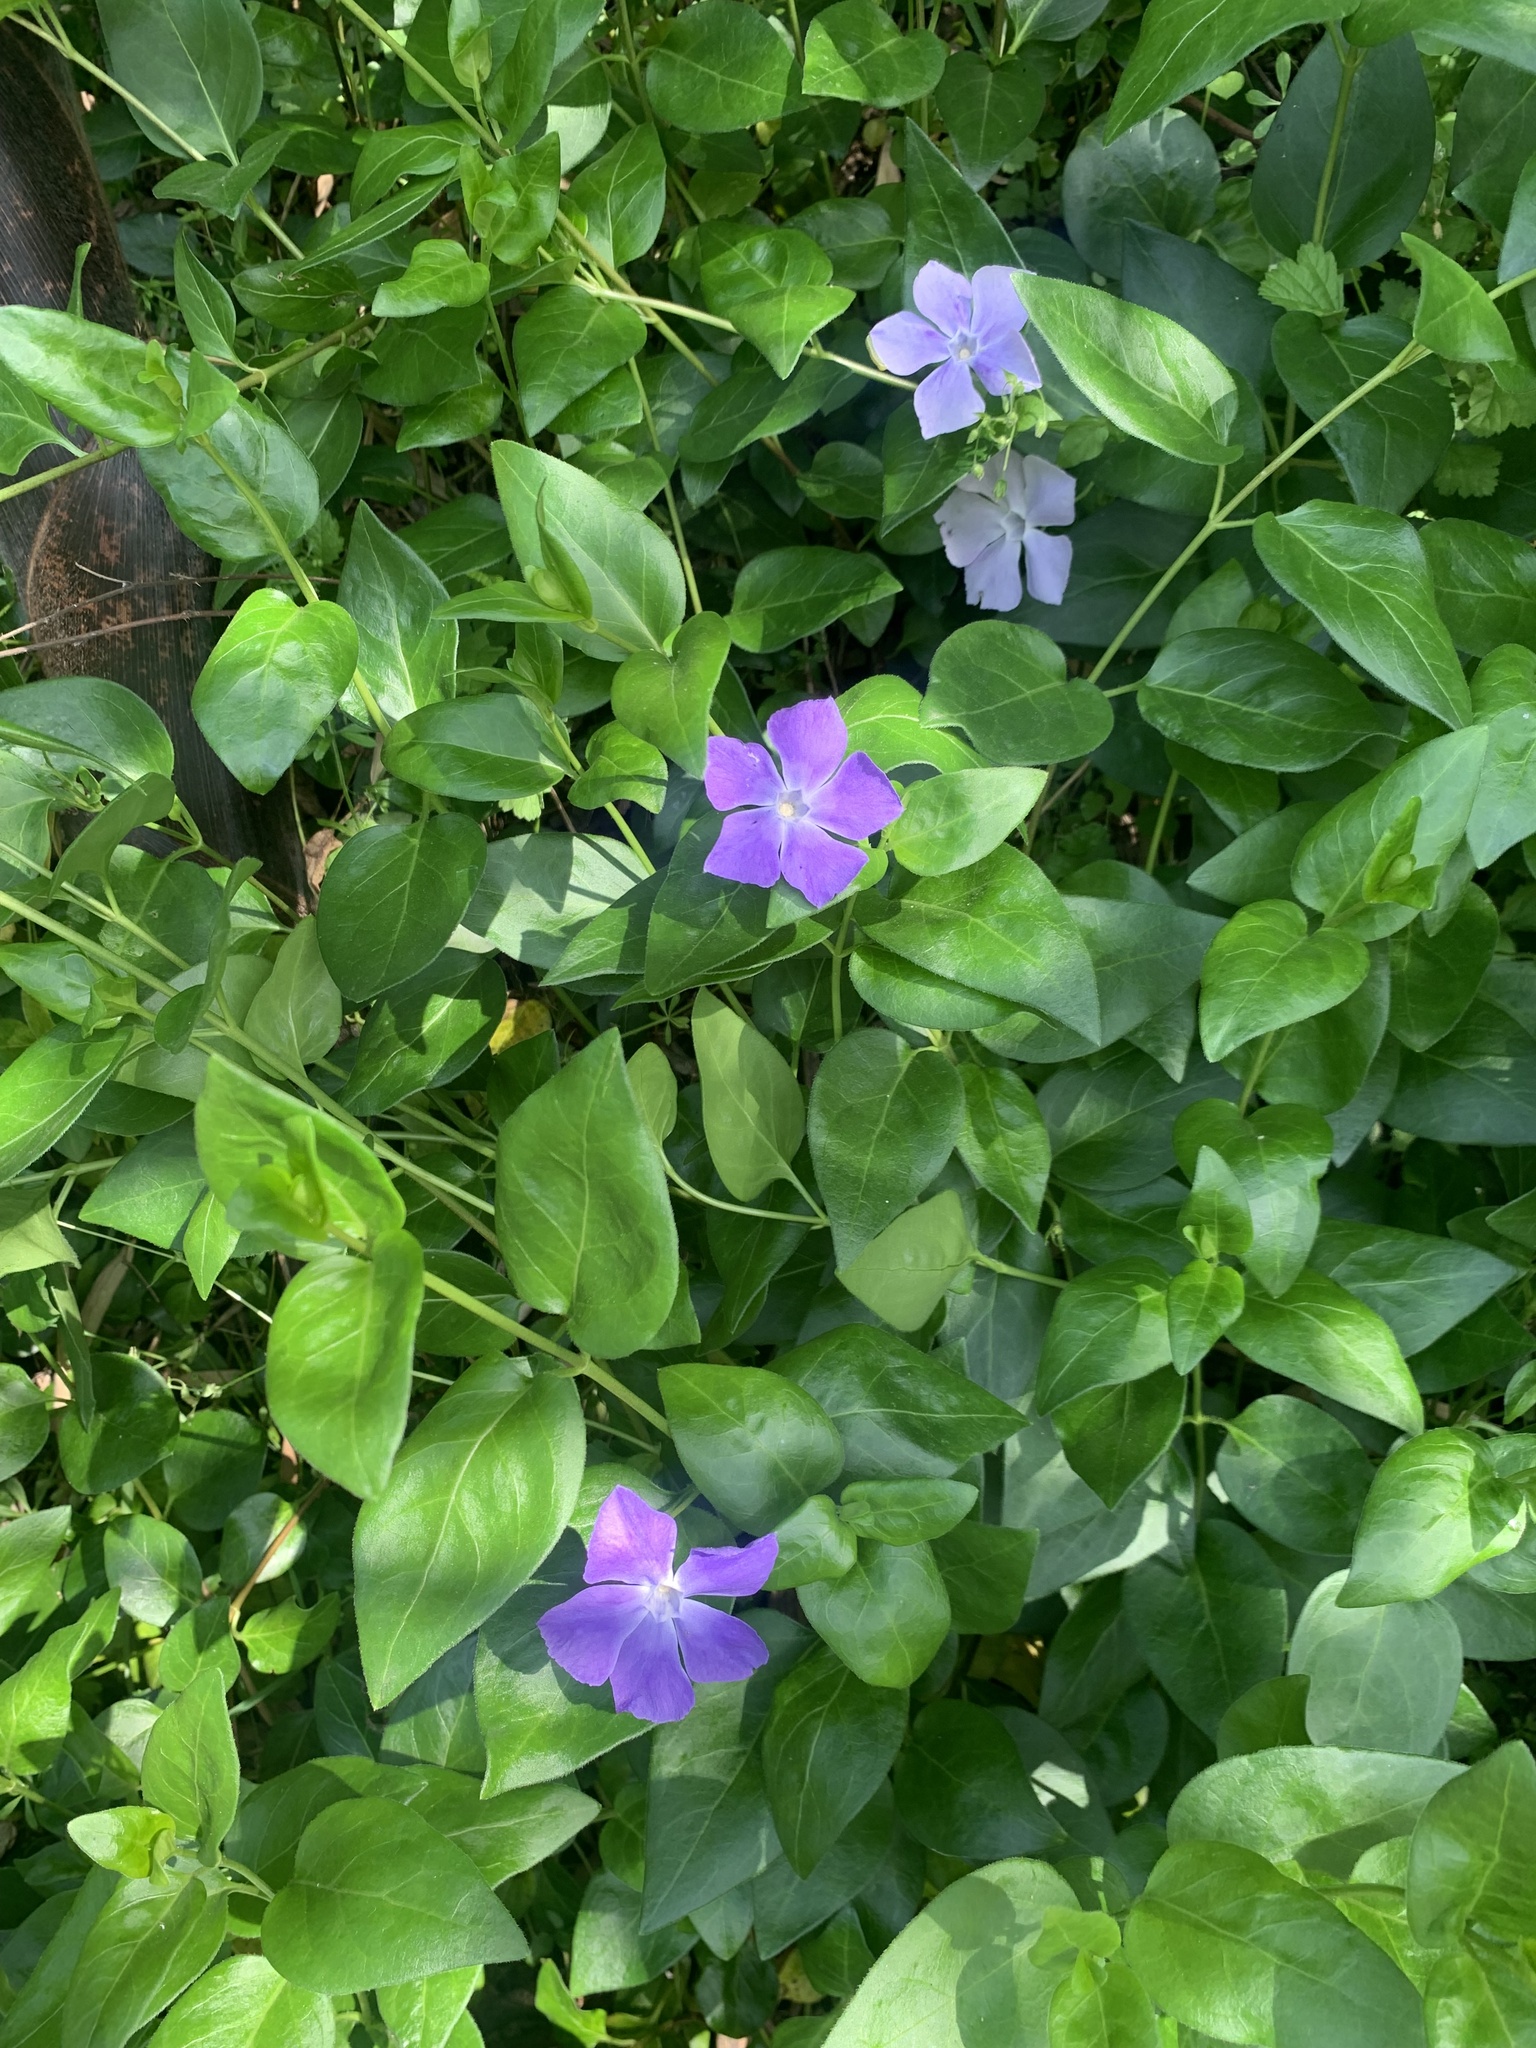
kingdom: Plantae
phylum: Tracheophyta
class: Magnoliopsida
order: Gentianales
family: Apocynaceae
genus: Vinca
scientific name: Vinca major
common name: Greater periwinkle
